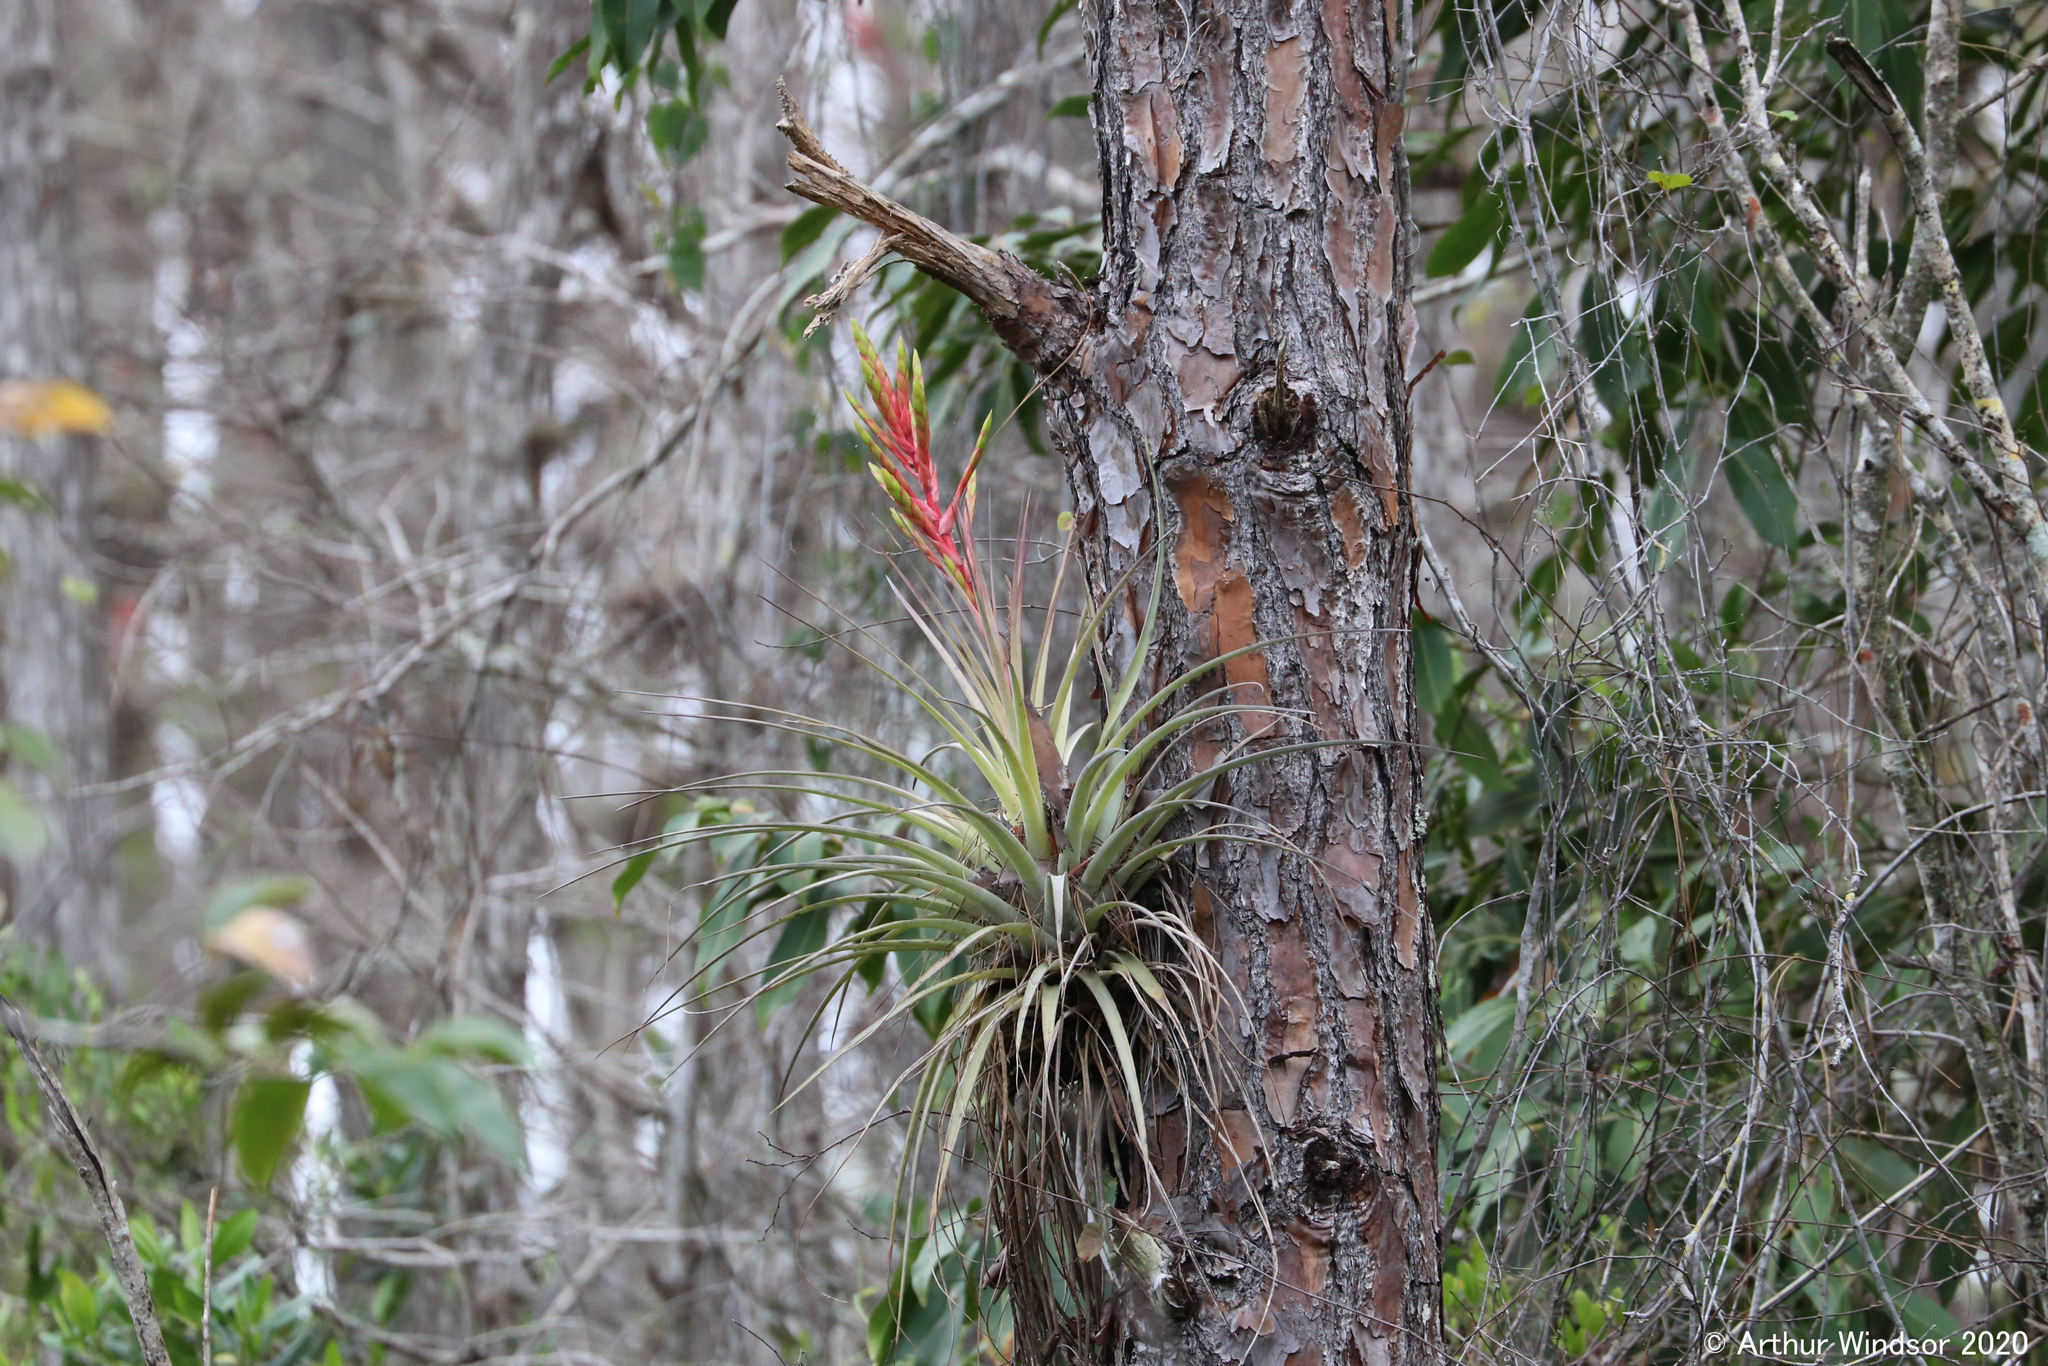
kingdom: Plantae
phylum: Tracheophyta
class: Liliopsida
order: Poales
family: Bromeliaceae
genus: Tillandsia
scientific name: Tillandsia fasciculata
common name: Giant airplant
